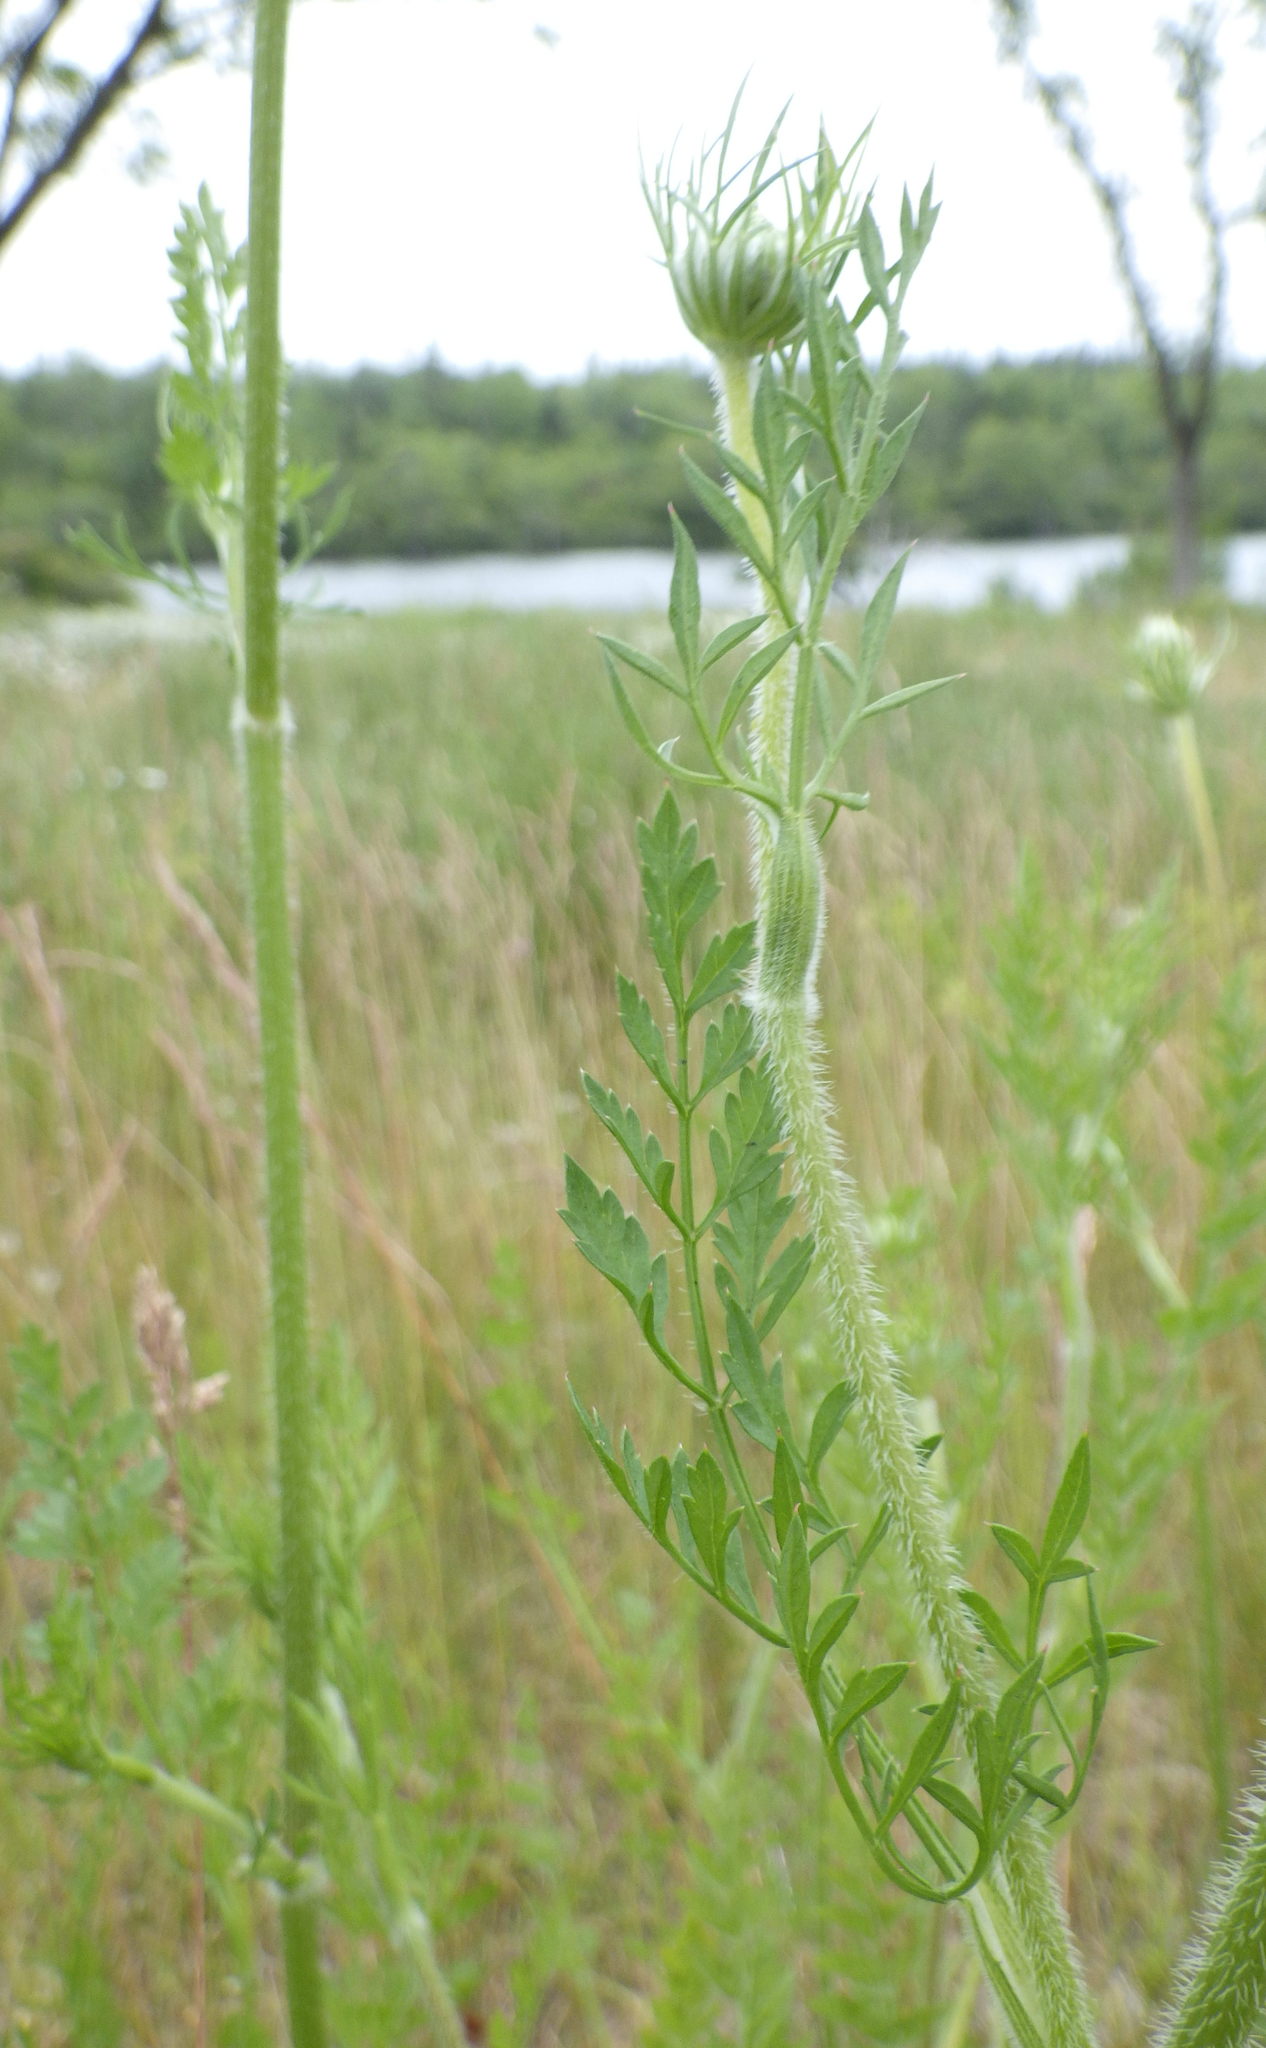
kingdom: Plantae
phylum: Tracheophyta
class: Magnoliopsida
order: Apiales
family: Apiaceae
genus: Daucus
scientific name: Daucus carota
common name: Wild carrot
